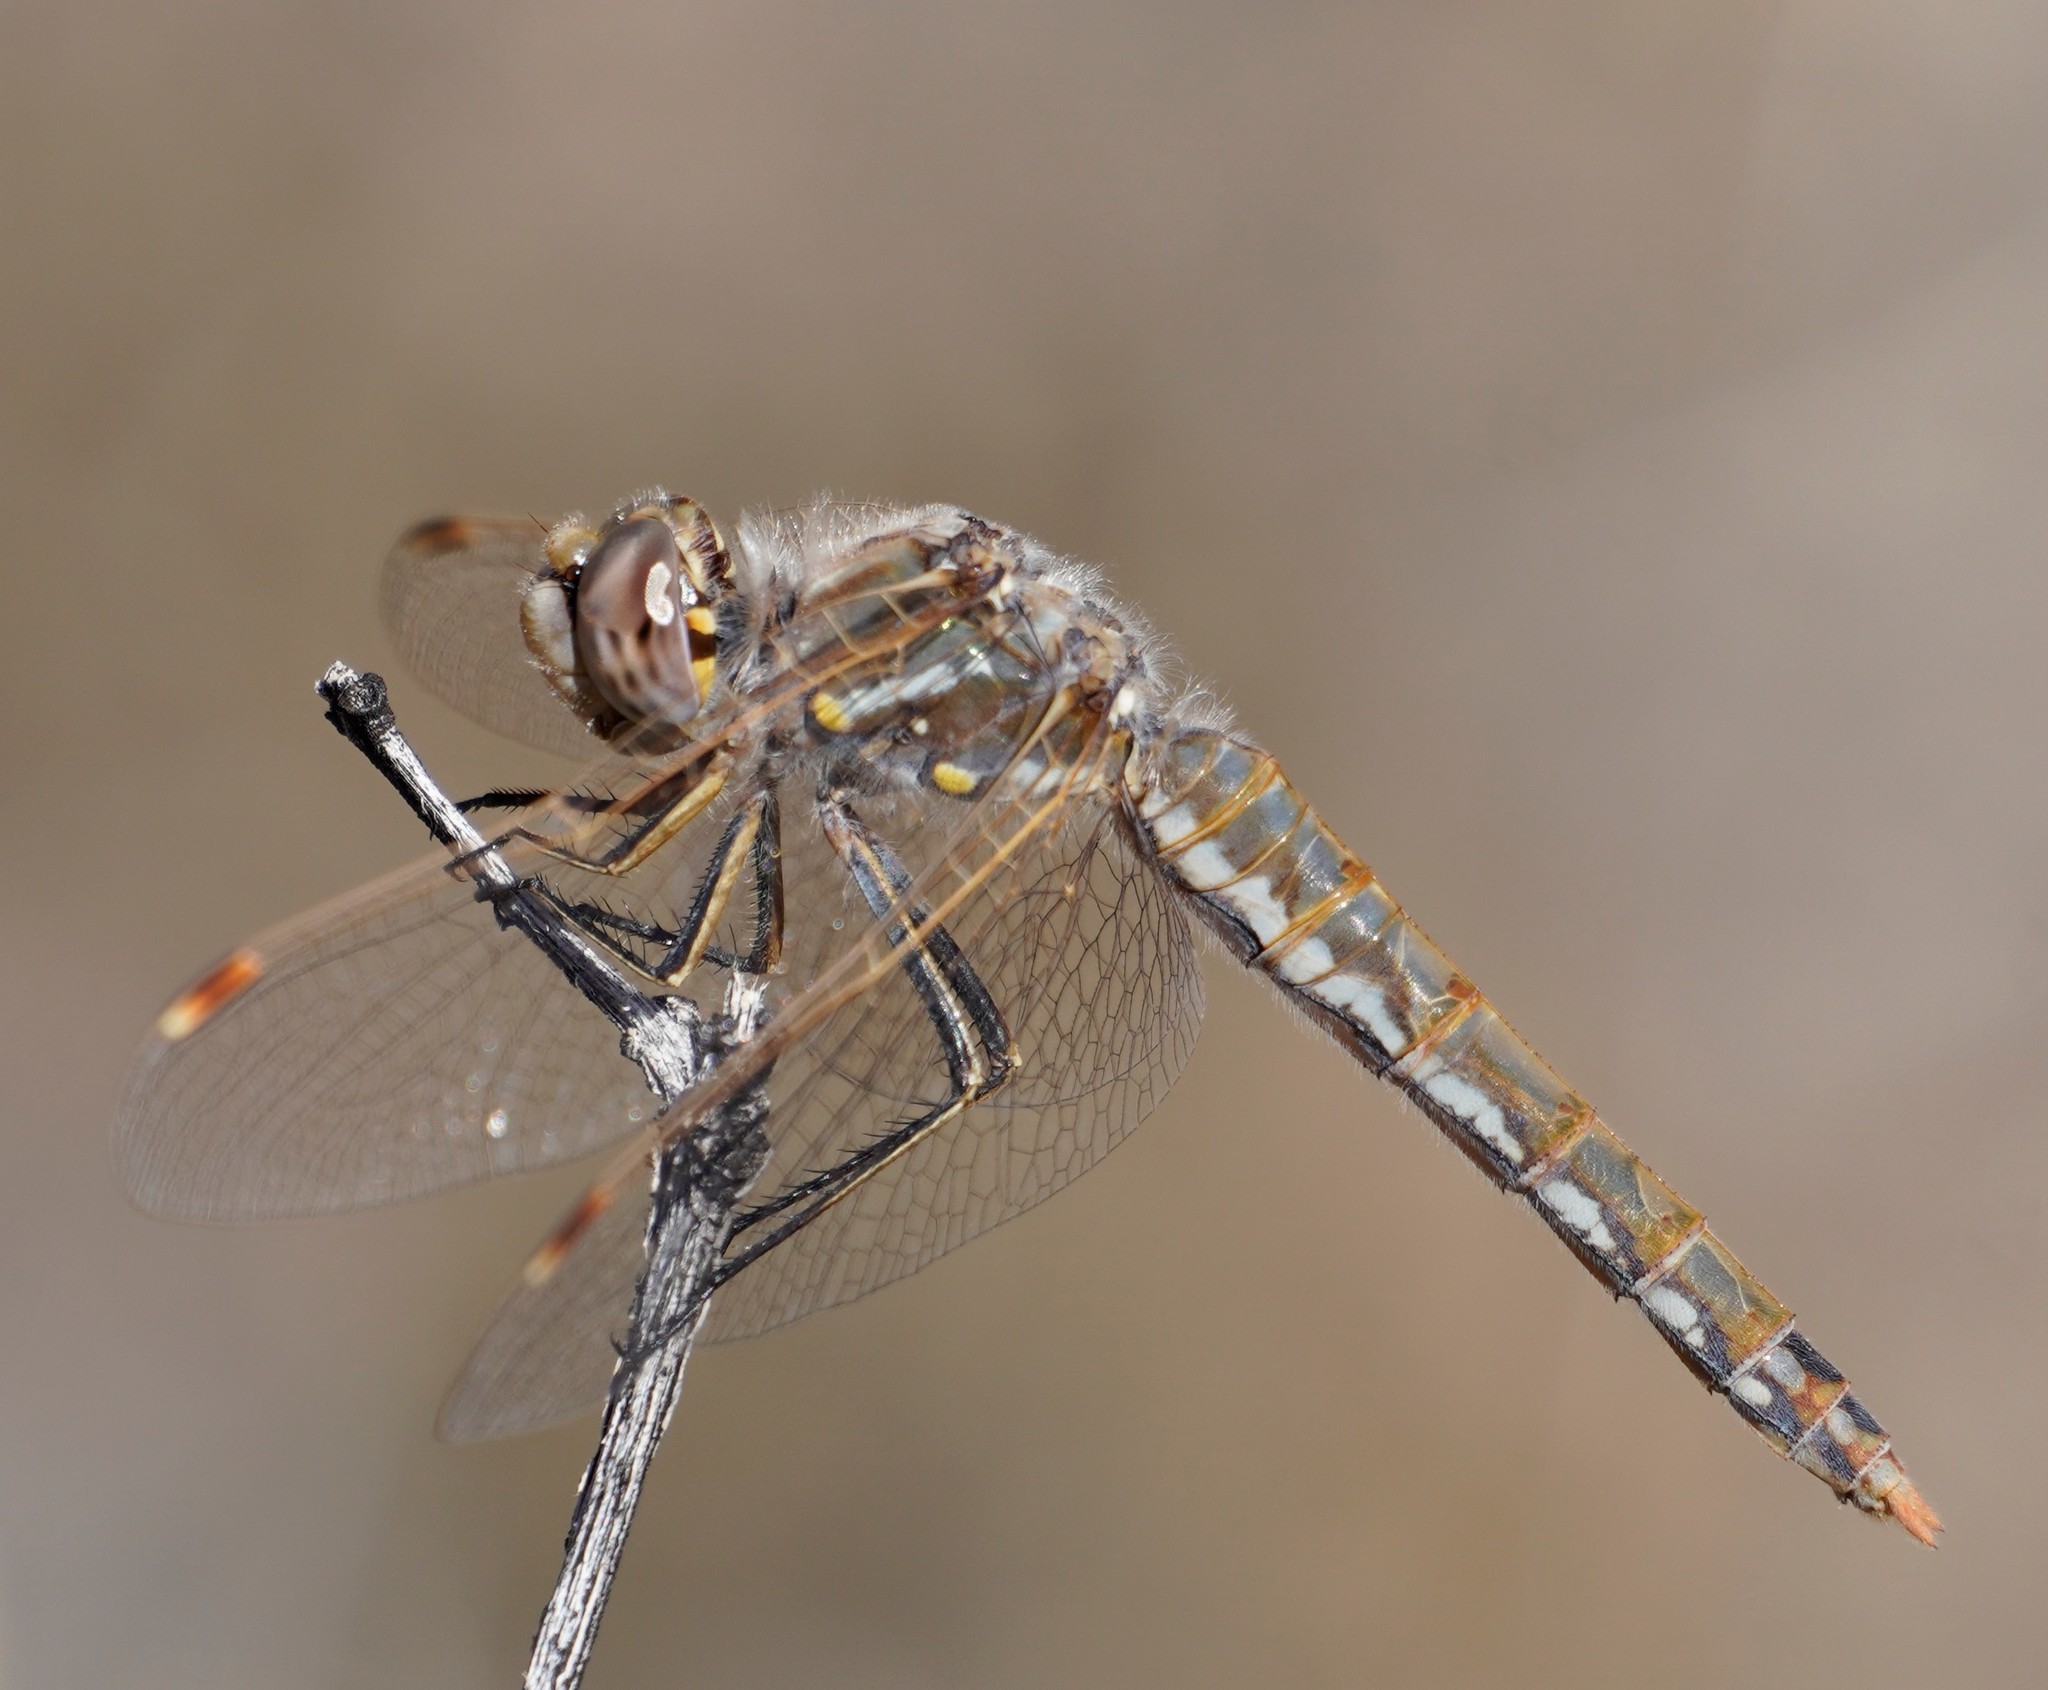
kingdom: Animalia
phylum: Arthropoda
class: Insecta
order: Odonata
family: Libellulidae
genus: Sympetrum
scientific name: Sympetrum corruptum
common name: Variegated meadowhawk
